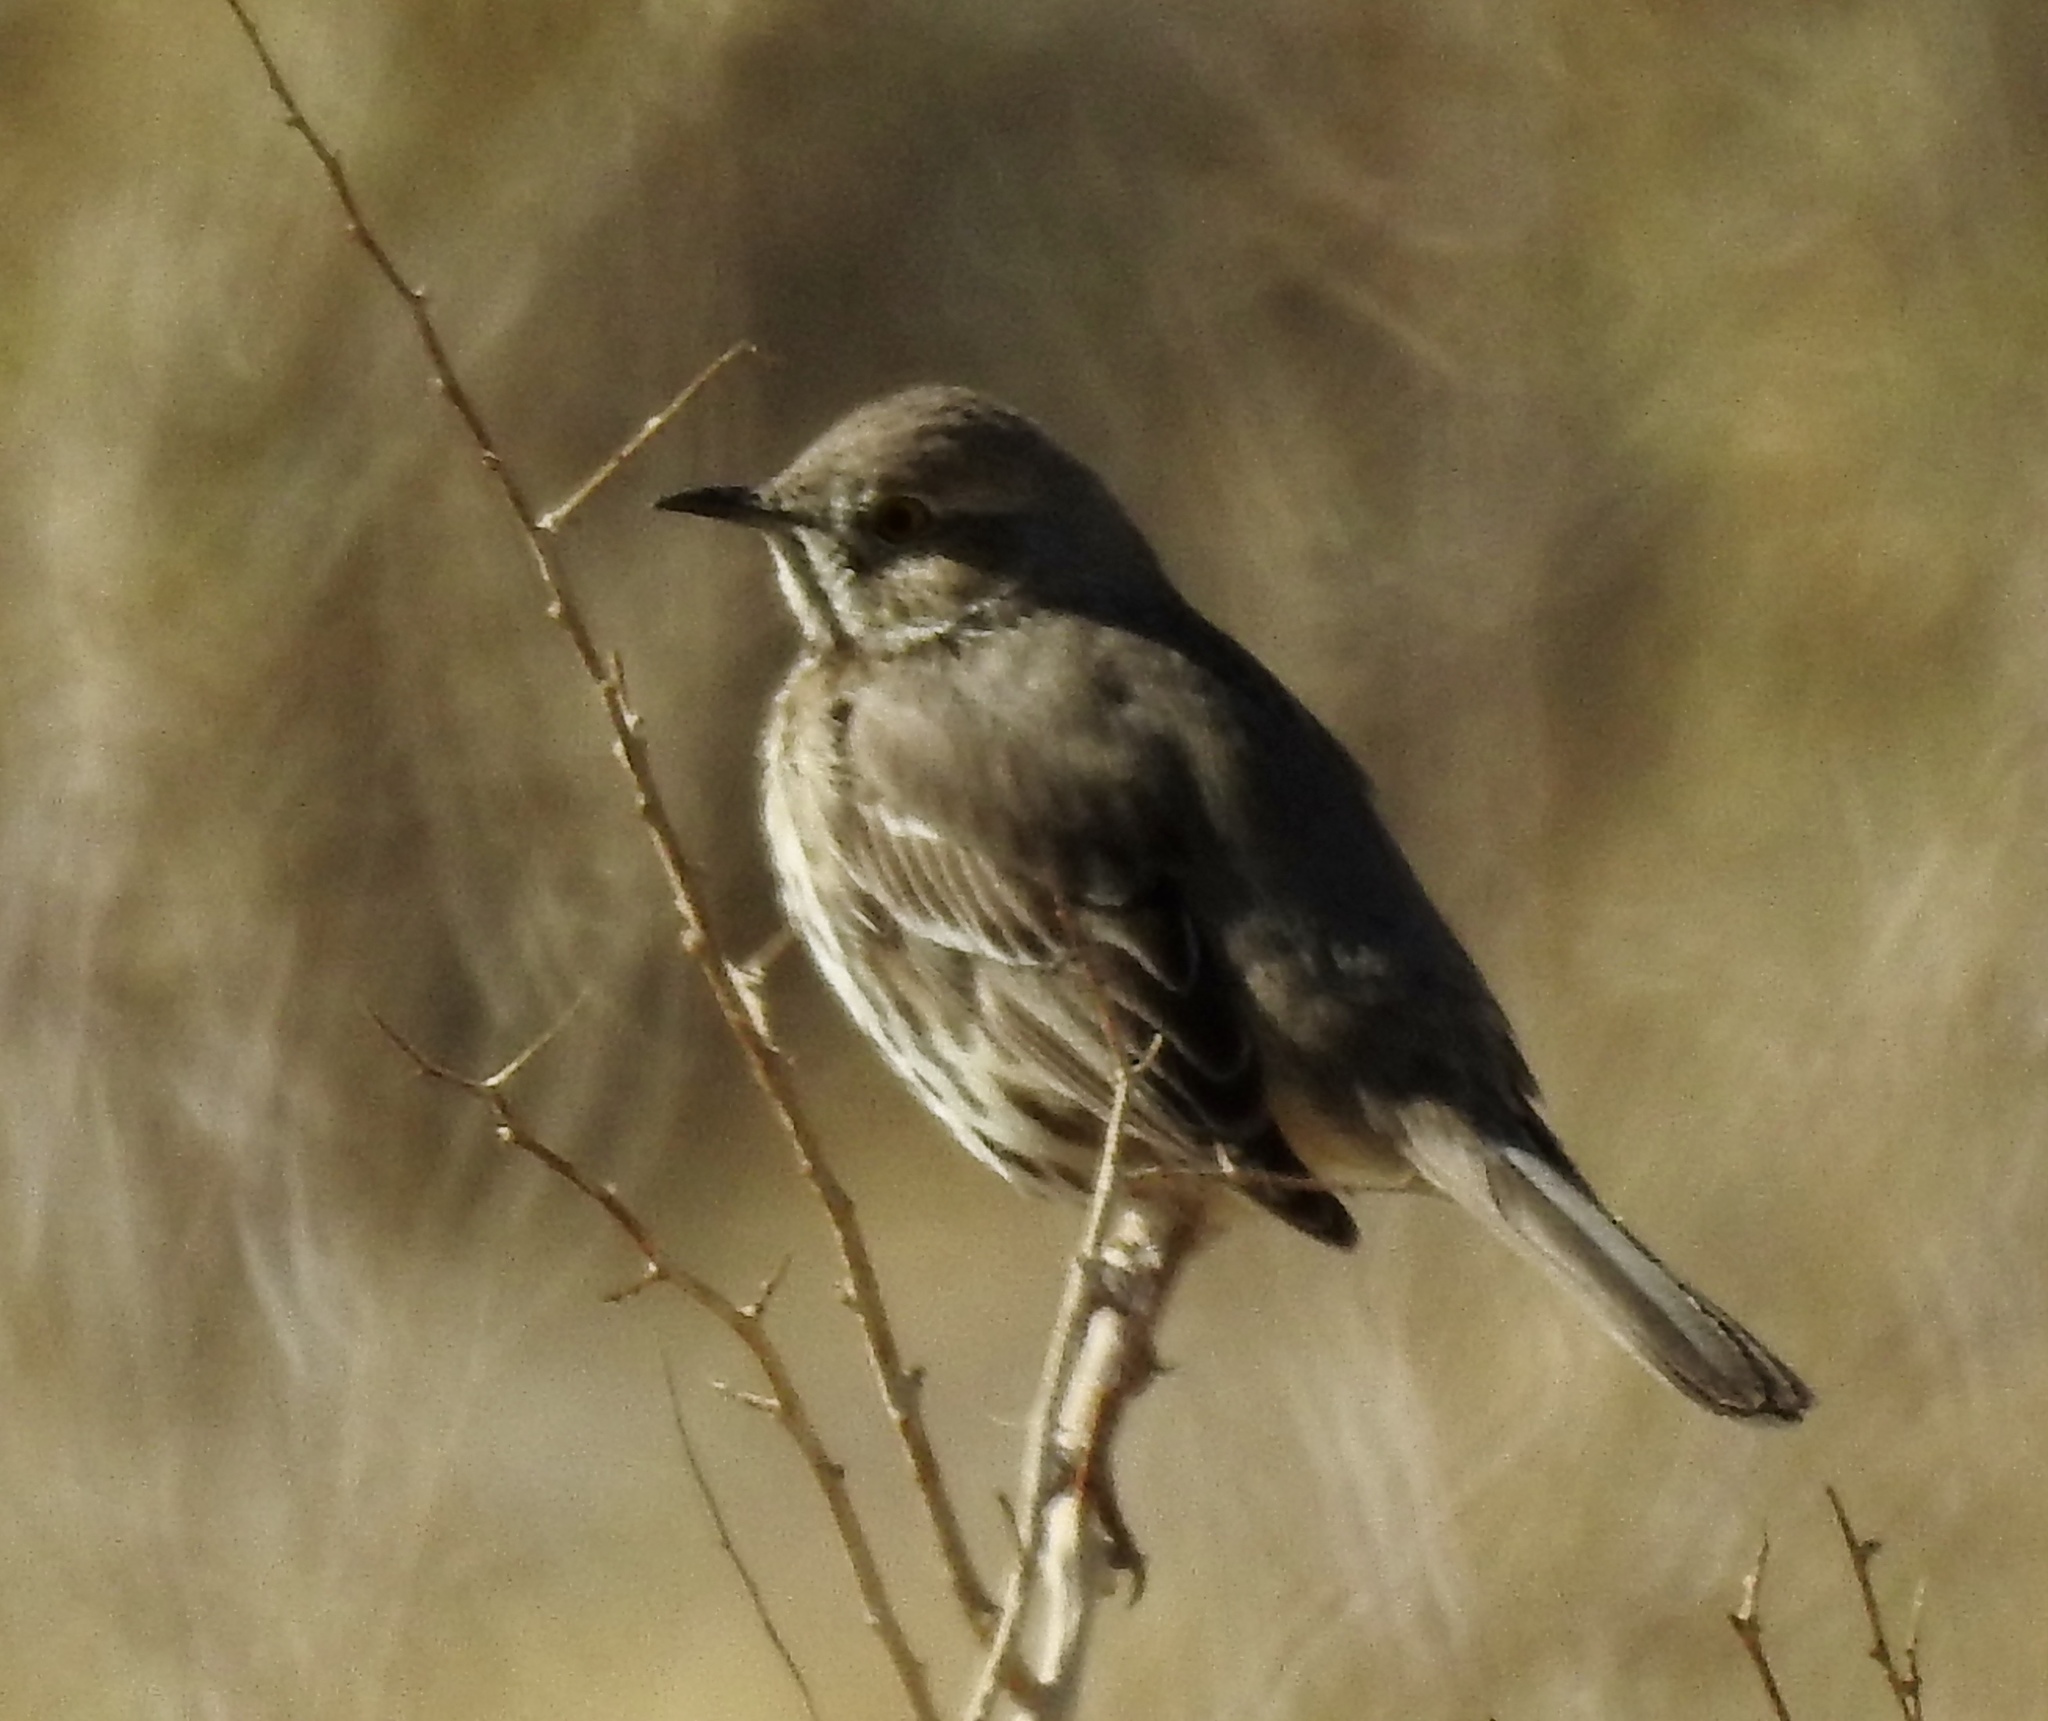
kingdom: Animalia
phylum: Chordata
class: Aves
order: Passeriformes
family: Mimidae
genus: Oreoscoptes
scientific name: Oreoscoptes montanus
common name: Sage thrasher
